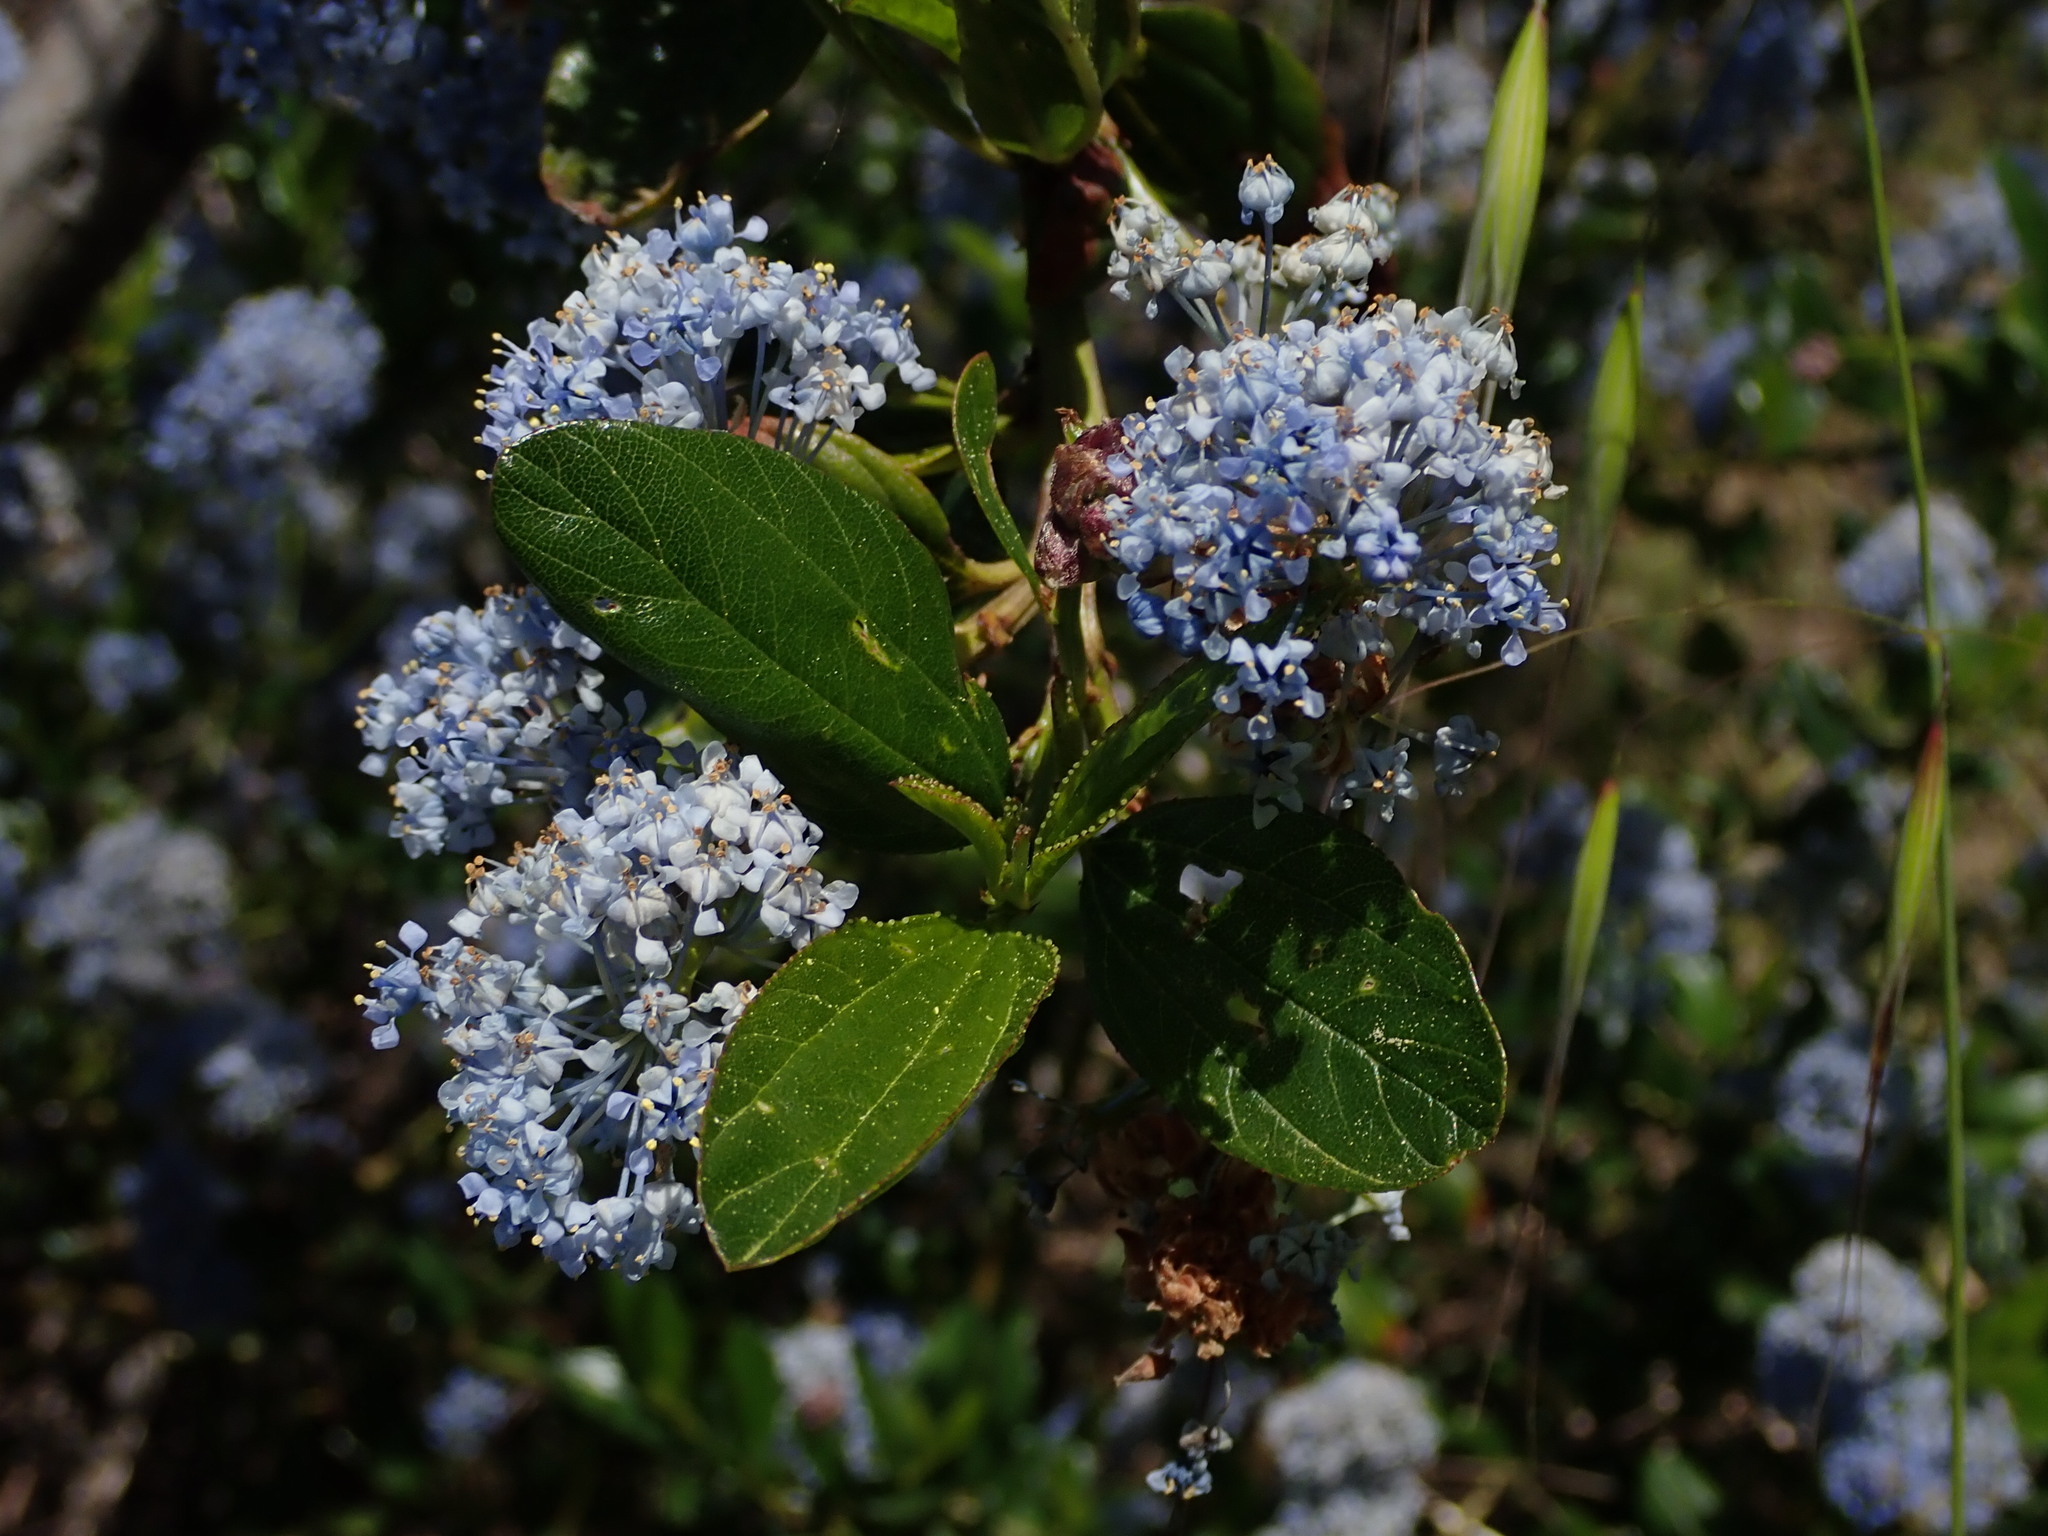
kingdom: Plantae
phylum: Tracheophyta
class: Magnoliopsida
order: Rosales
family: Rhamnaceae
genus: Ceanothus
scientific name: Ceanothus thyrsiflorus
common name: California-lilac
